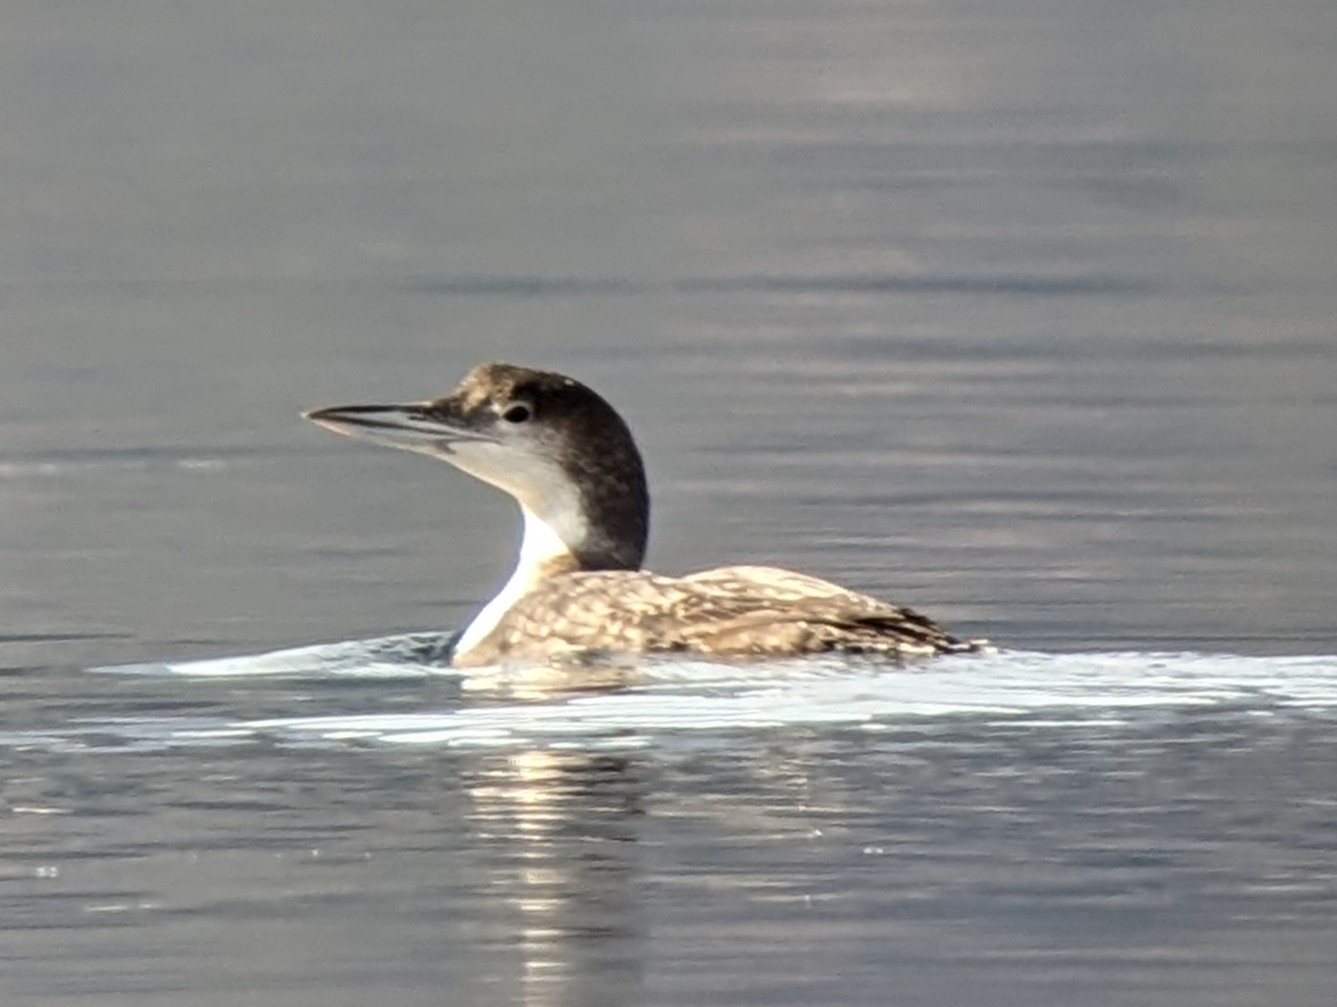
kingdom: Animalia
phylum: Chordata
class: Aves
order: Gaviiformes
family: Gaviidae
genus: Gavia
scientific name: Gavia immer
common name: Common loon
